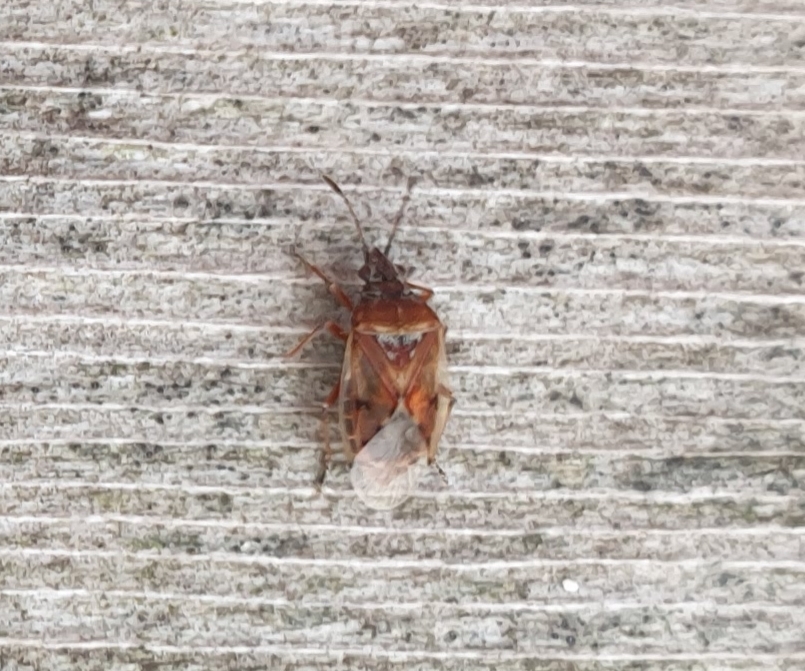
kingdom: Animalia
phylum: Arthropoda
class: Insecta
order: Hemiptera
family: Lygaeidae
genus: Kleidocerys
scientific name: Kleidocerys resedae
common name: Birch catkin bug
